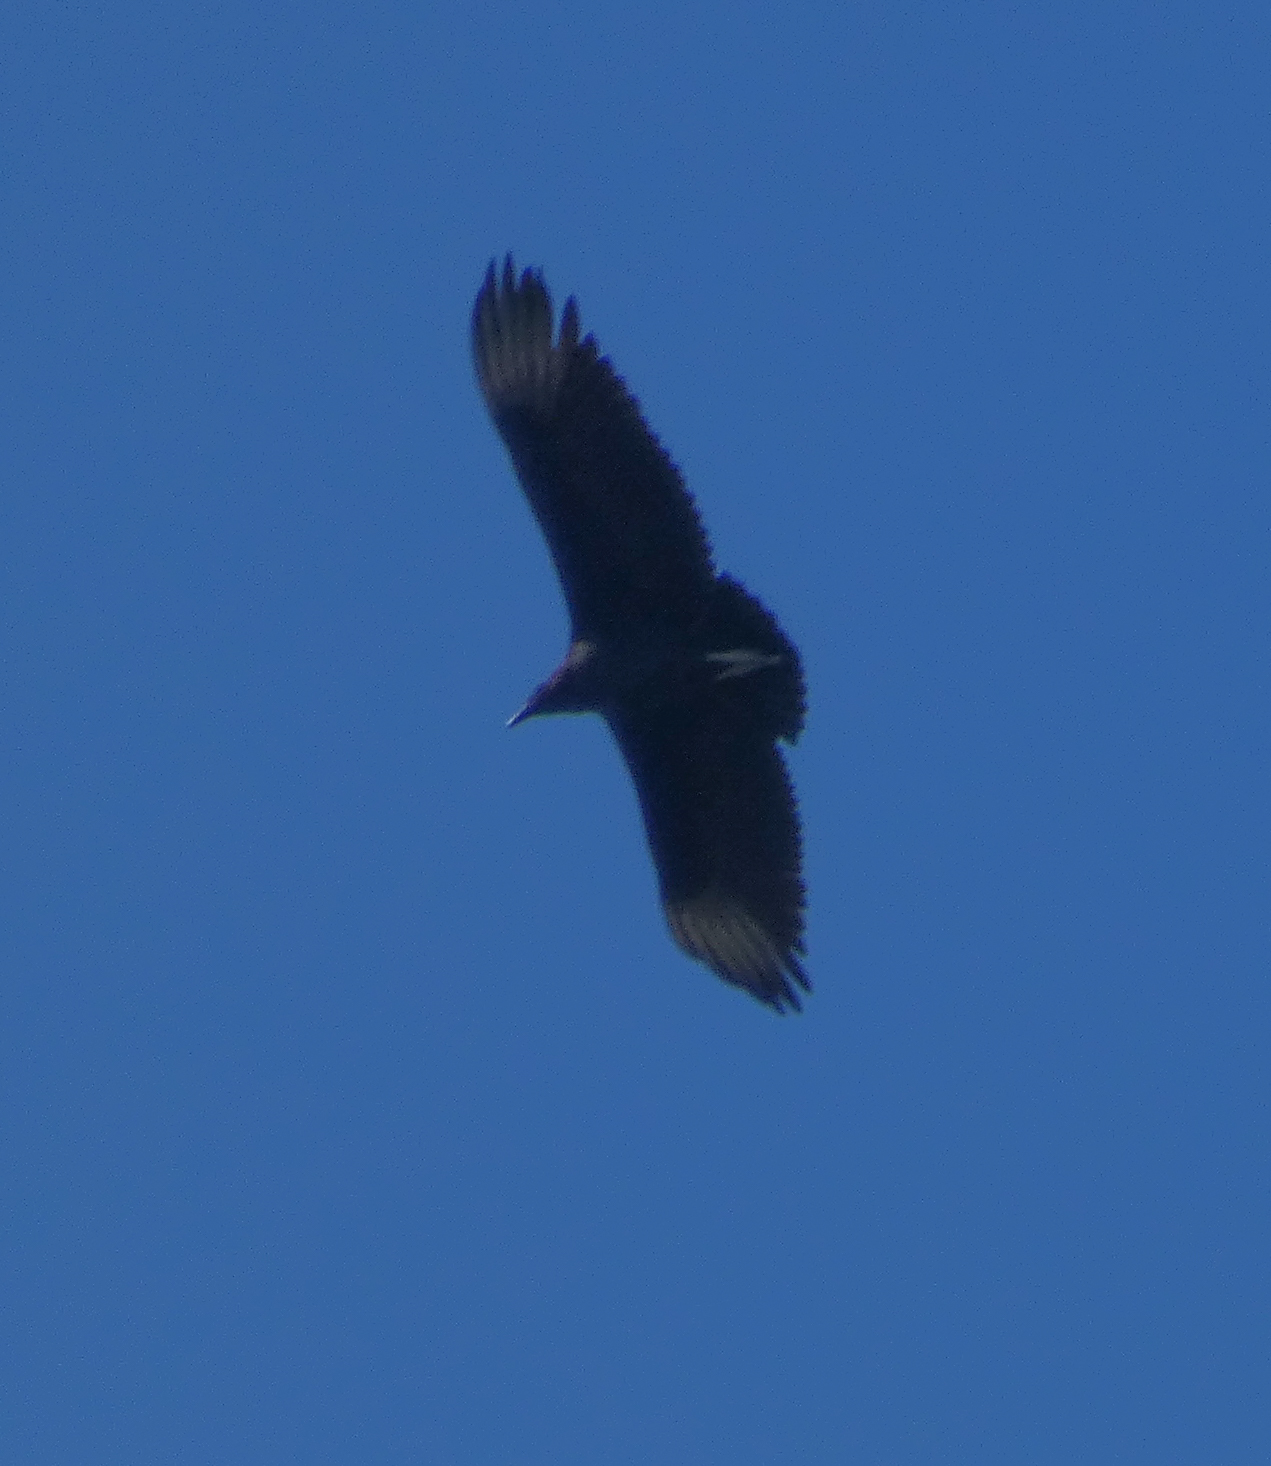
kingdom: Animalia
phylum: Chordata
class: Aves
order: Accipitriformes
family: Cathartidae
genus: Coragyps
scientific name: Coragyps atratus
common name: Black vulture
